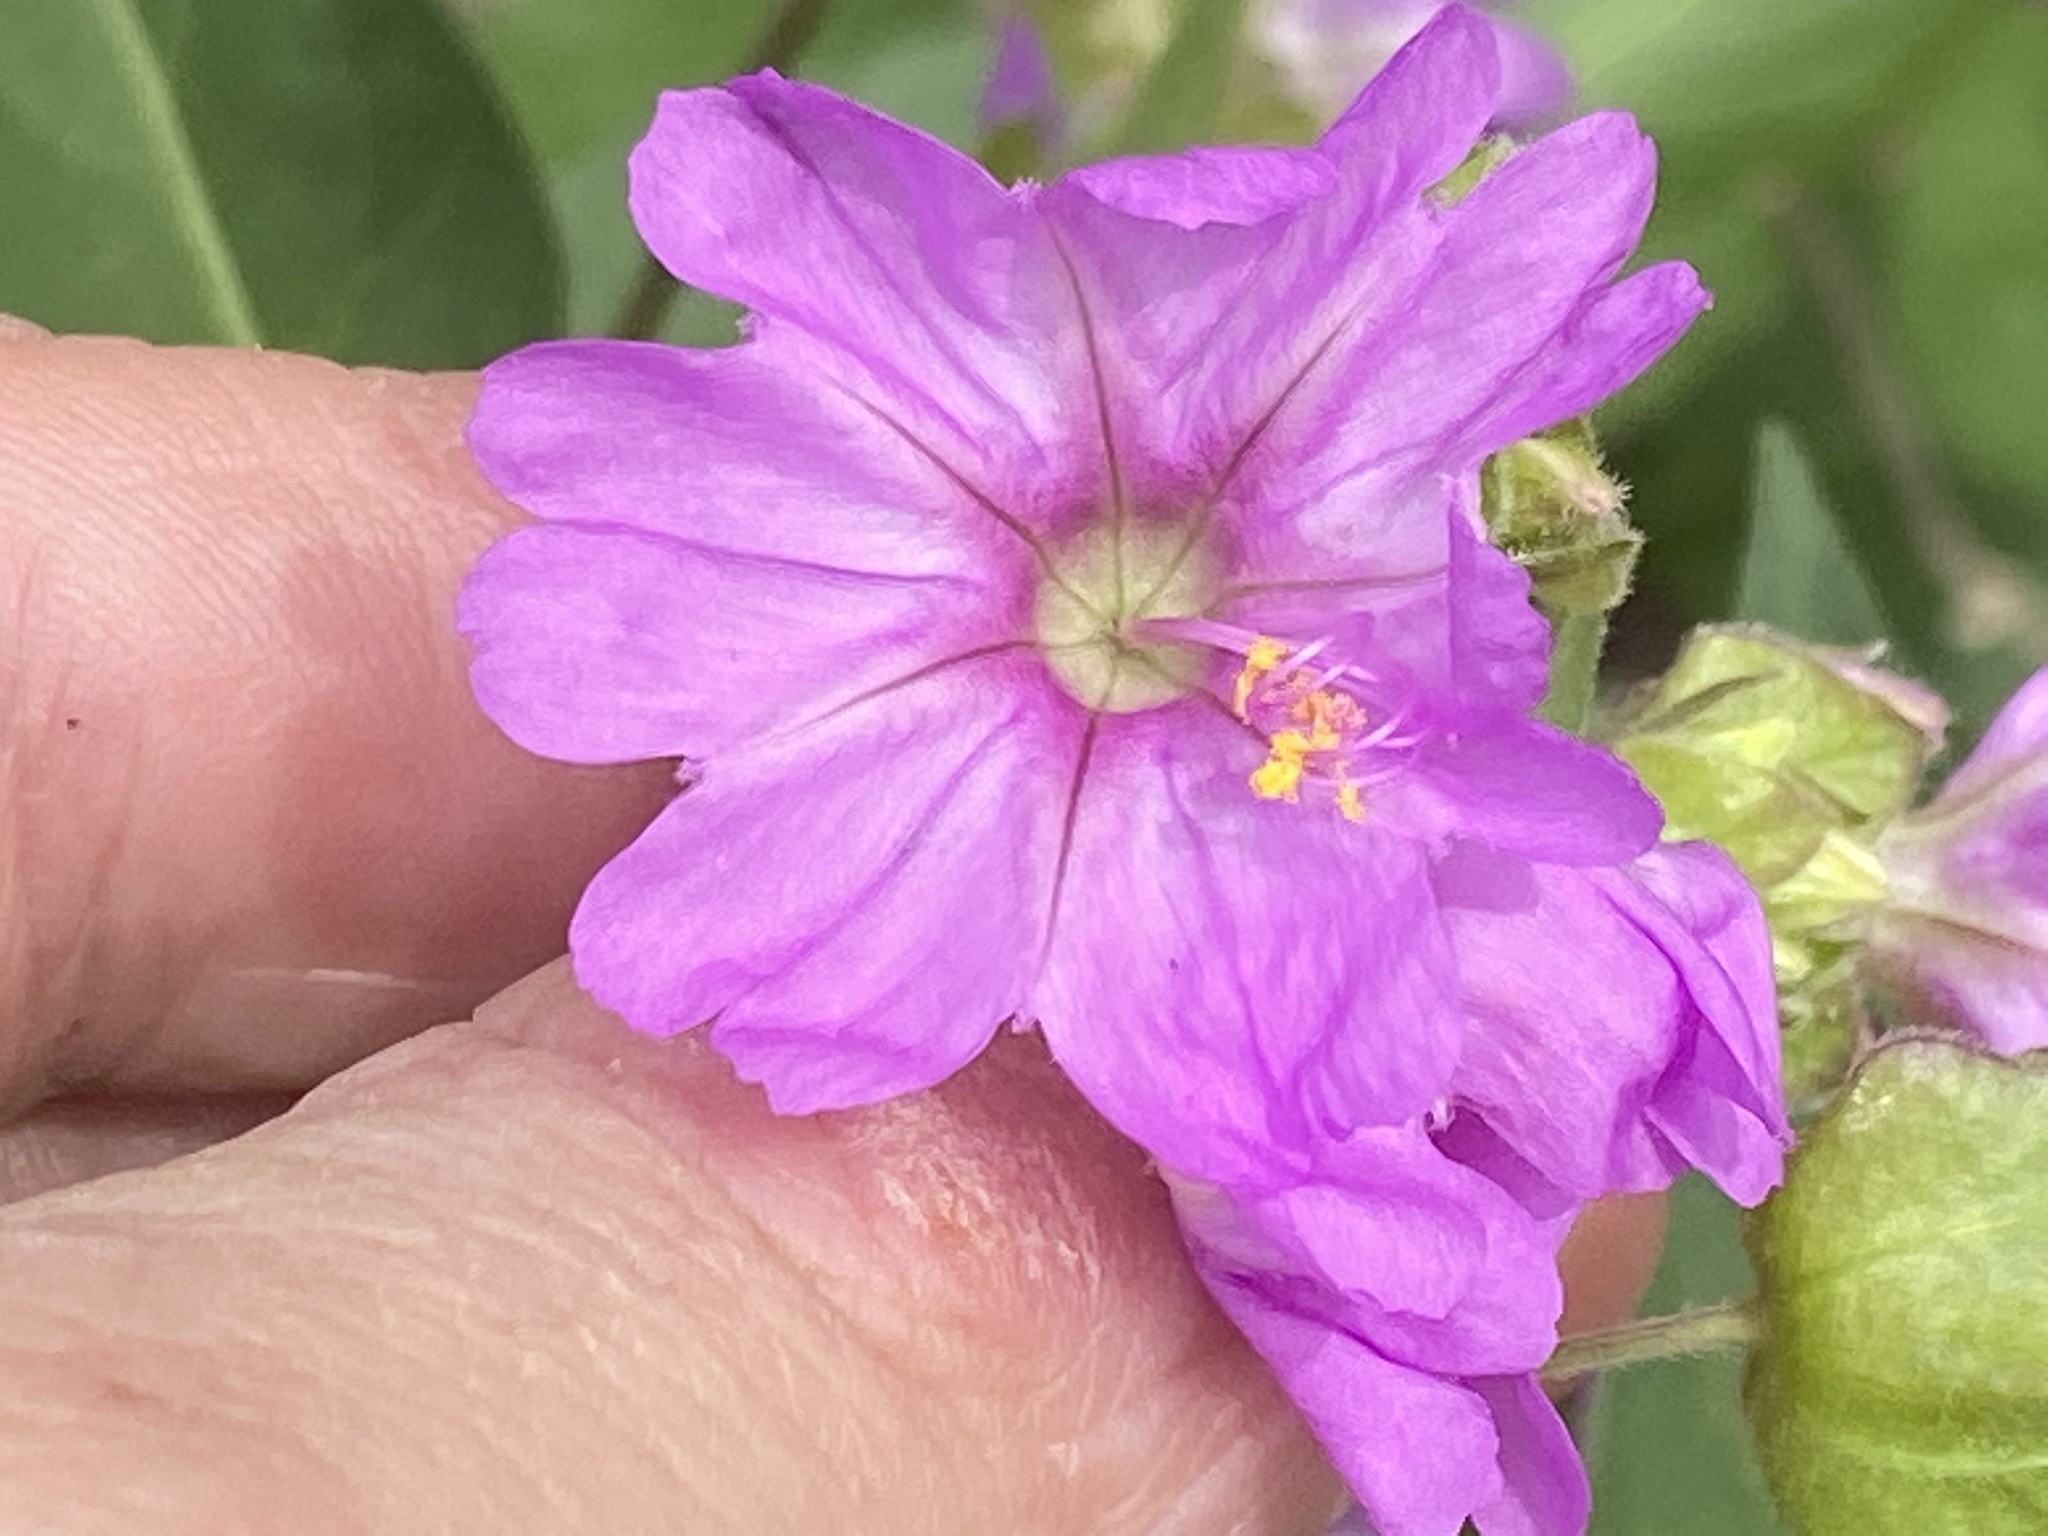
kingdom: Plantae
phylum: Tracheophyta
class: Magnoliopsida
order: Caryophyllales
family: Nyctaginaceae
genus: Mirabilis
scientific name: Mirabilis nyctaginea
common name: Umbrella wort
